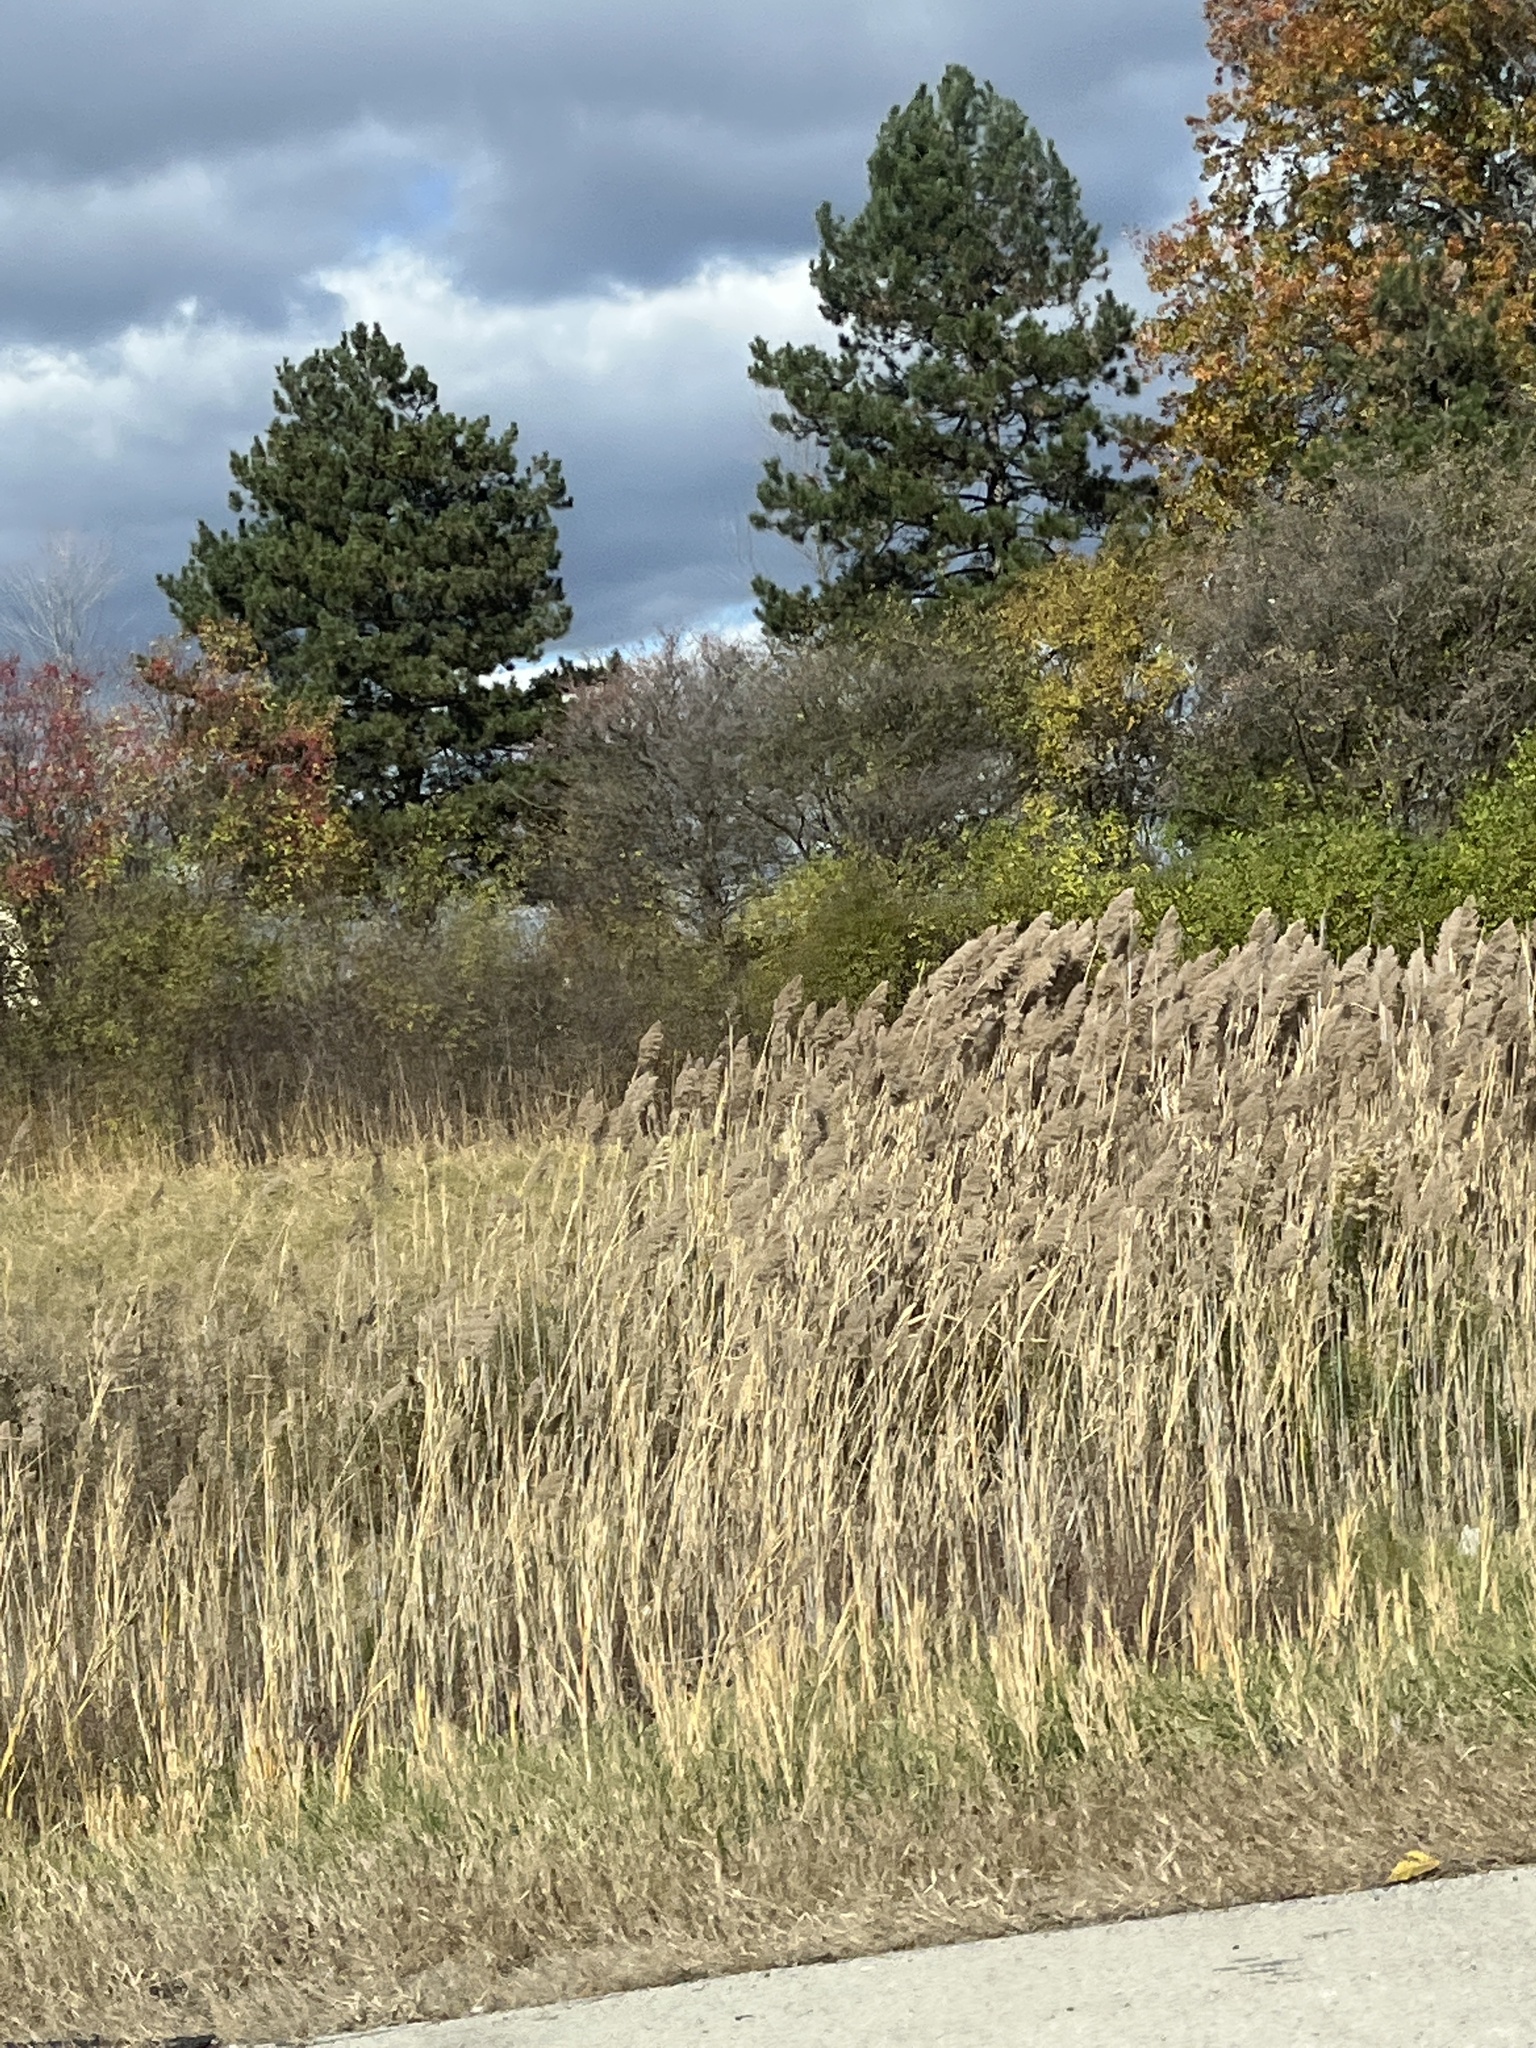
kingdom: Plantae
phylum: Tracheophyta
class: Liliopsida
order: Poales
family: Poaceae
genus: Phragmites
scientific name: Phragmites australis
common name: Common reed
